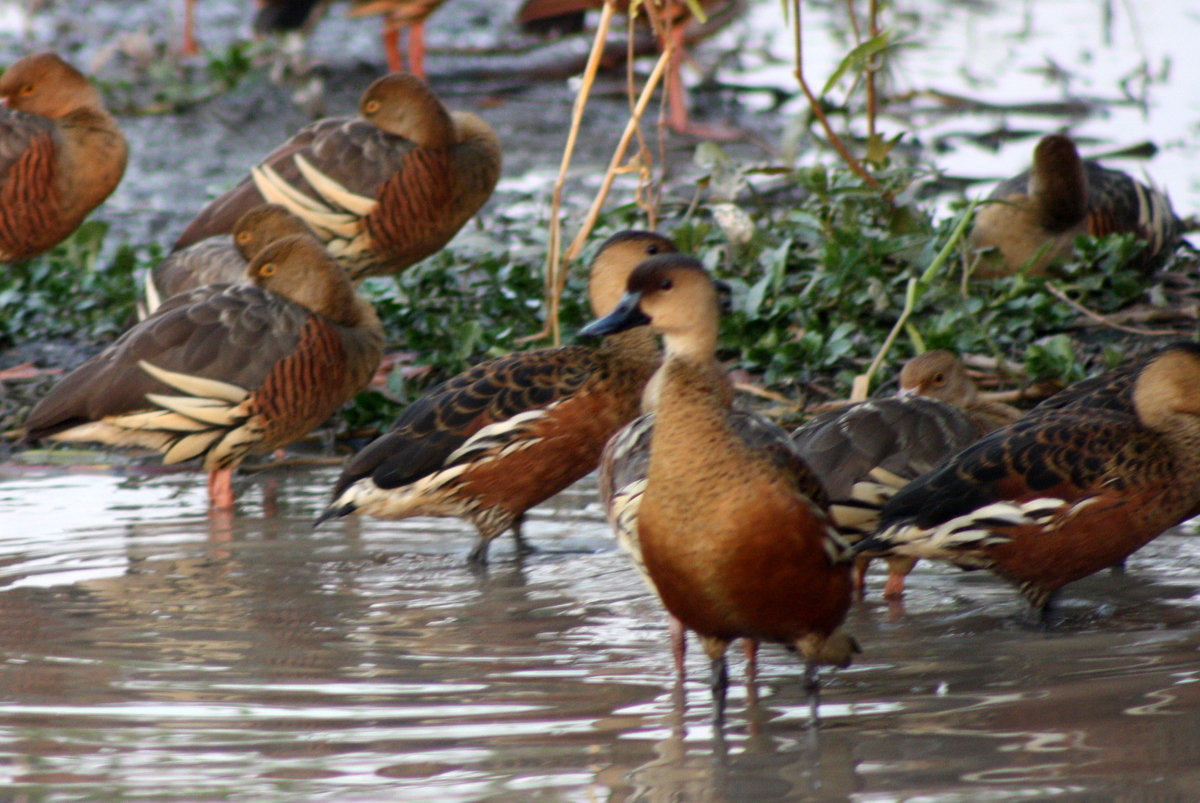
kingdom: Animalia
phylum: Chordata
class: Aves
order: Anseriformes
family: Anatidae
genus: Dendrocygna
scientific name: Dendrocygna arcuata
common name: Wandering whistling-duck
